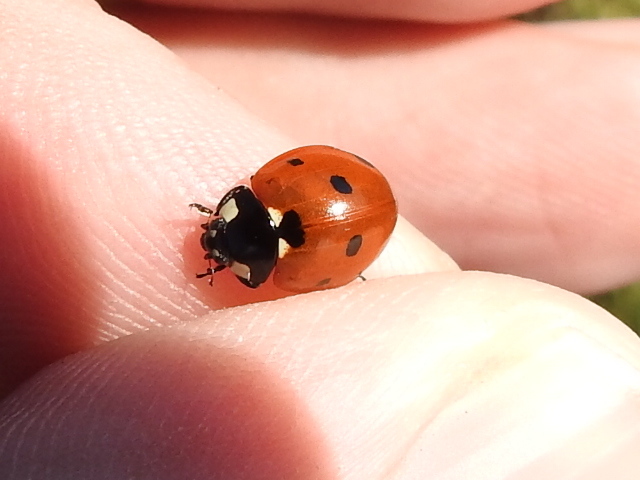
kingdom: Animalia
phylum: Arthropoda
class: Insecta
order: Coleoptera
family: Coccinellidae
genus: Coccinella
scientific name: Coccinella septempunctata
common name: Sevenspotted lady beetle
